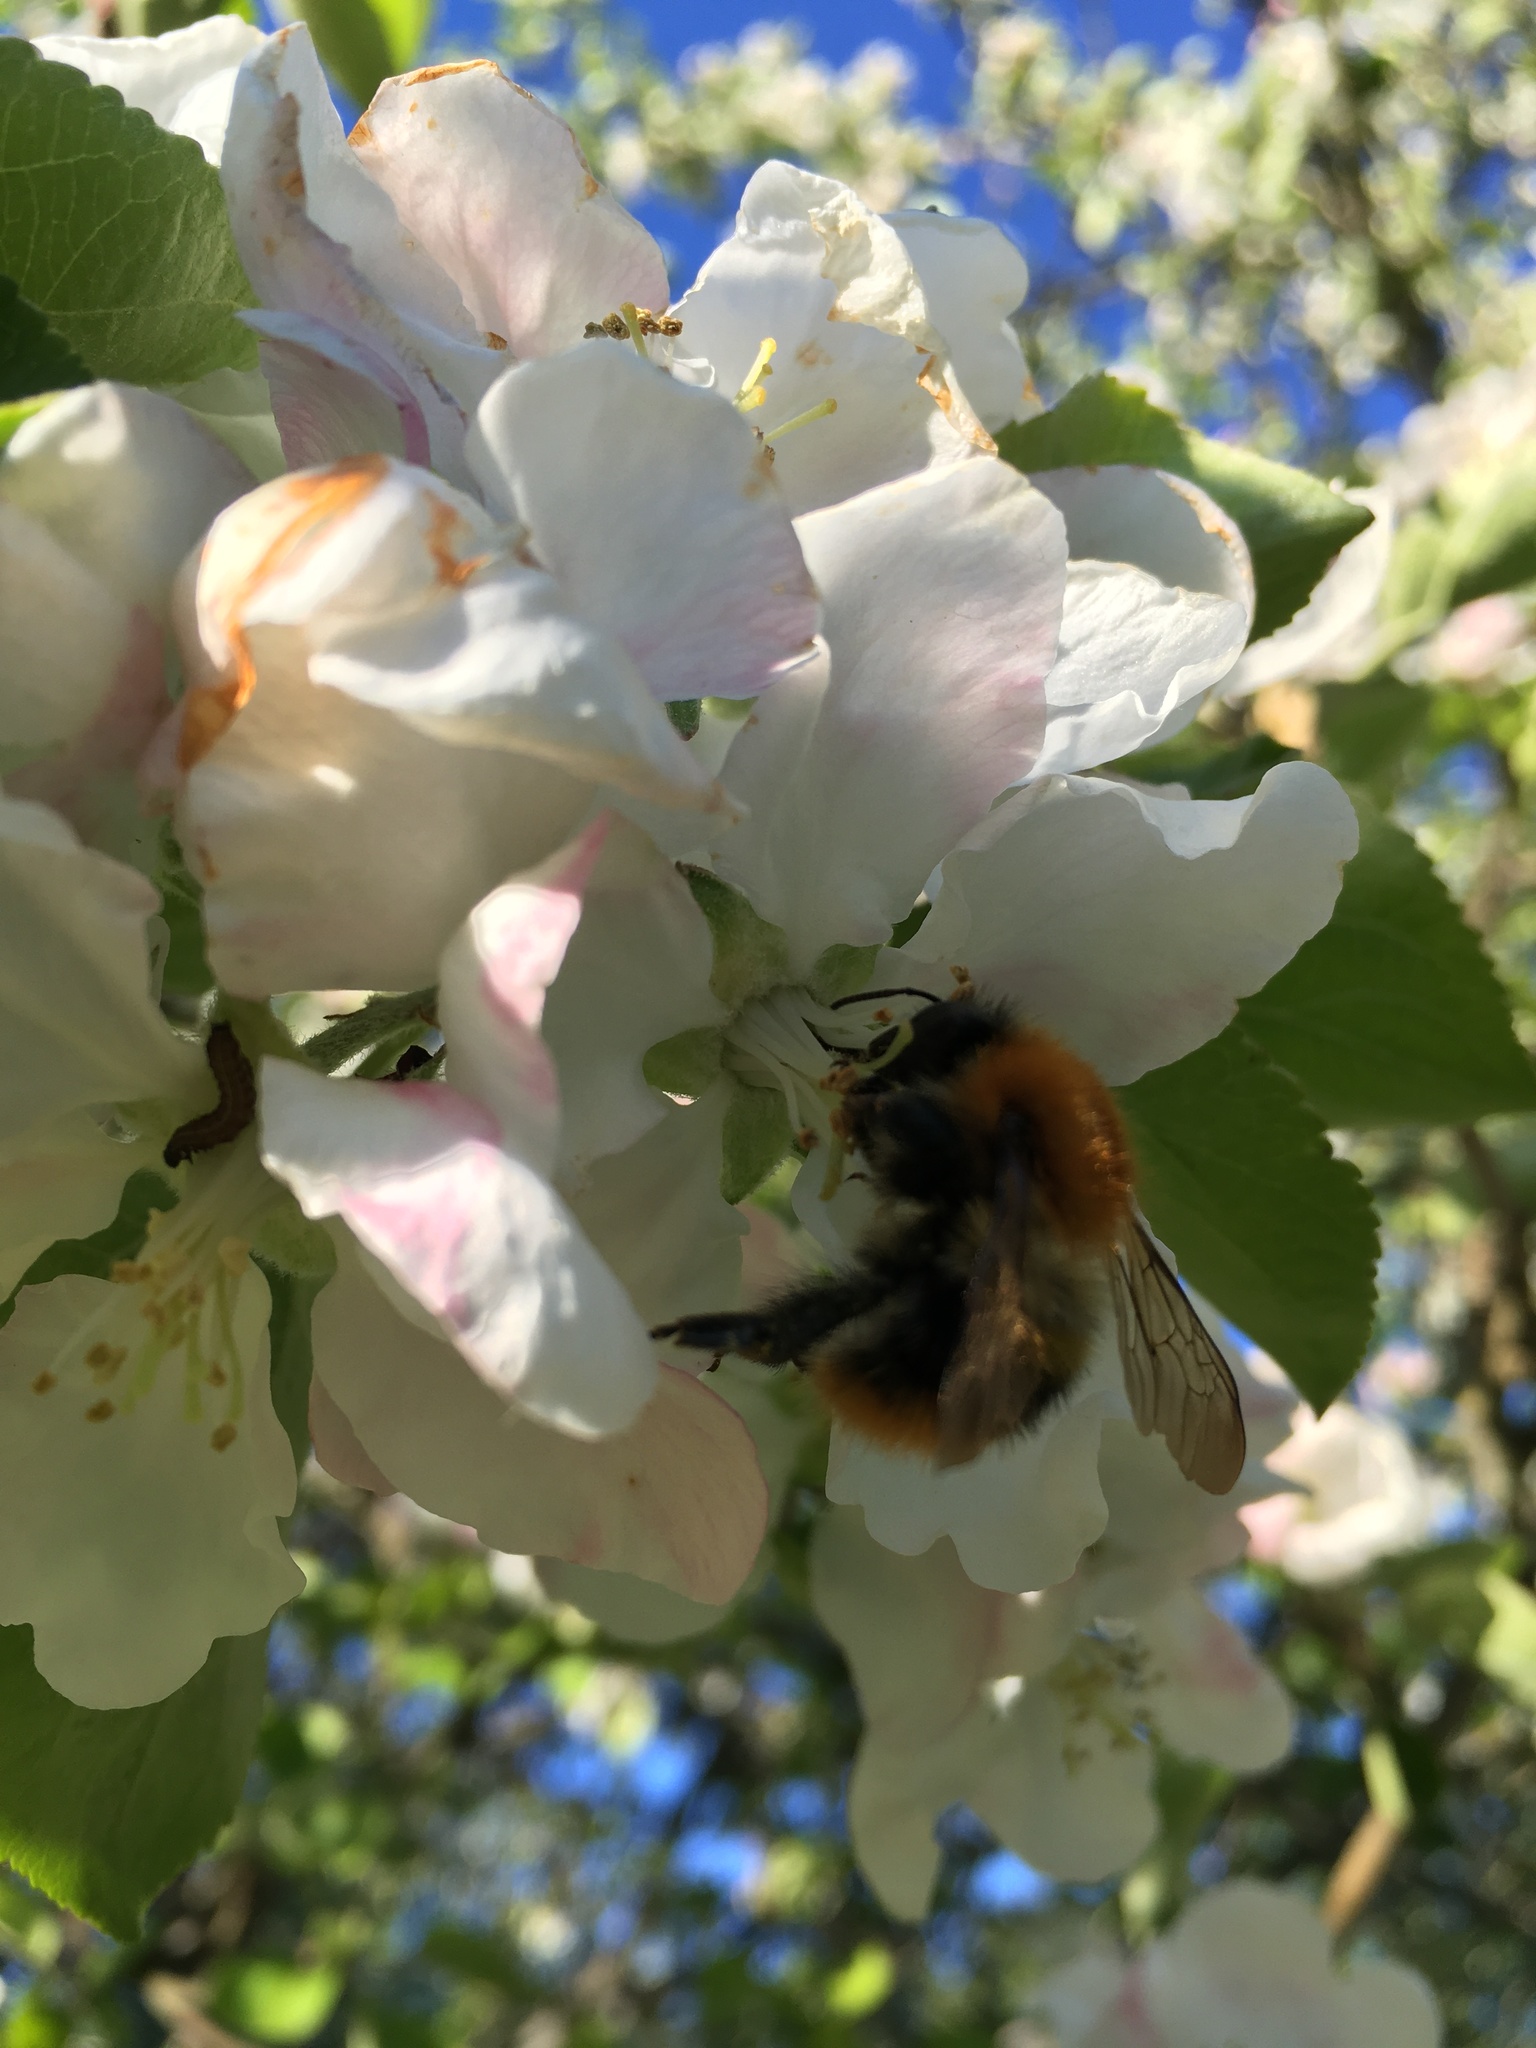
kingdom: Animalia
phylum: Arthropoda
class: Insecta
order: Hymenoptera
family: Apidae
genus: Bombus
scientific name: Bombus pascuorum
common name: Common carder bee
